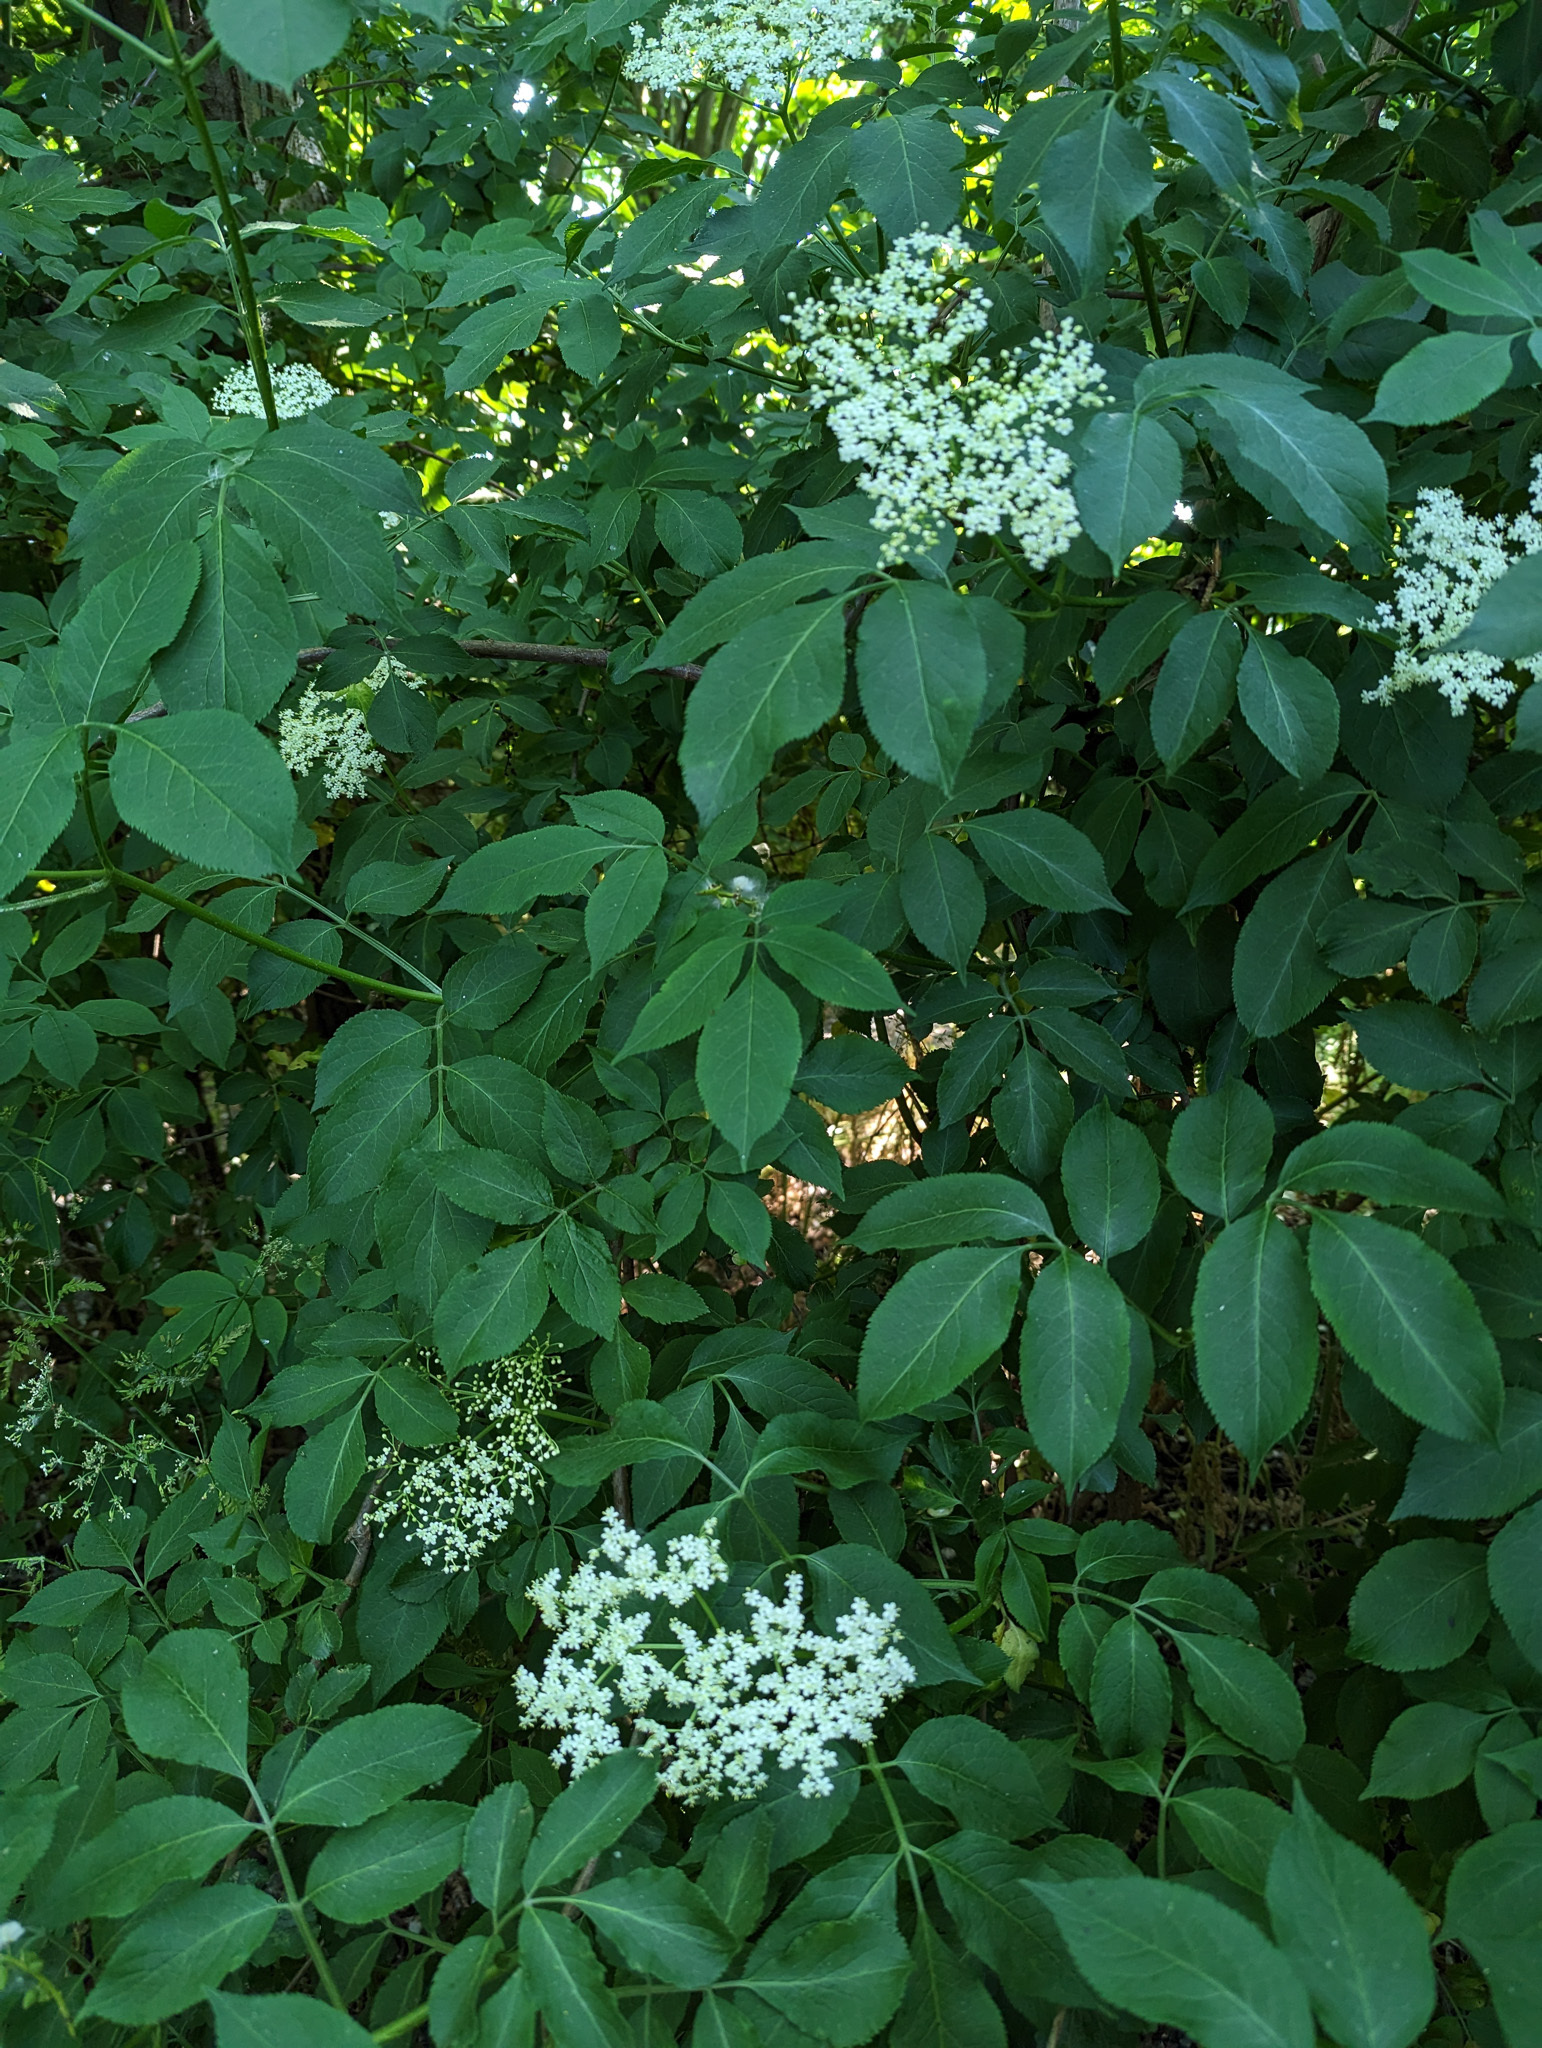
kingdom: Plantae
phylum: Tracheophyta
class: Magnoliopsida
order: Dipsacales
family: Viburnaceae
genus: Sambucus
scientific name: Sambucus nigra
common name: Elder
